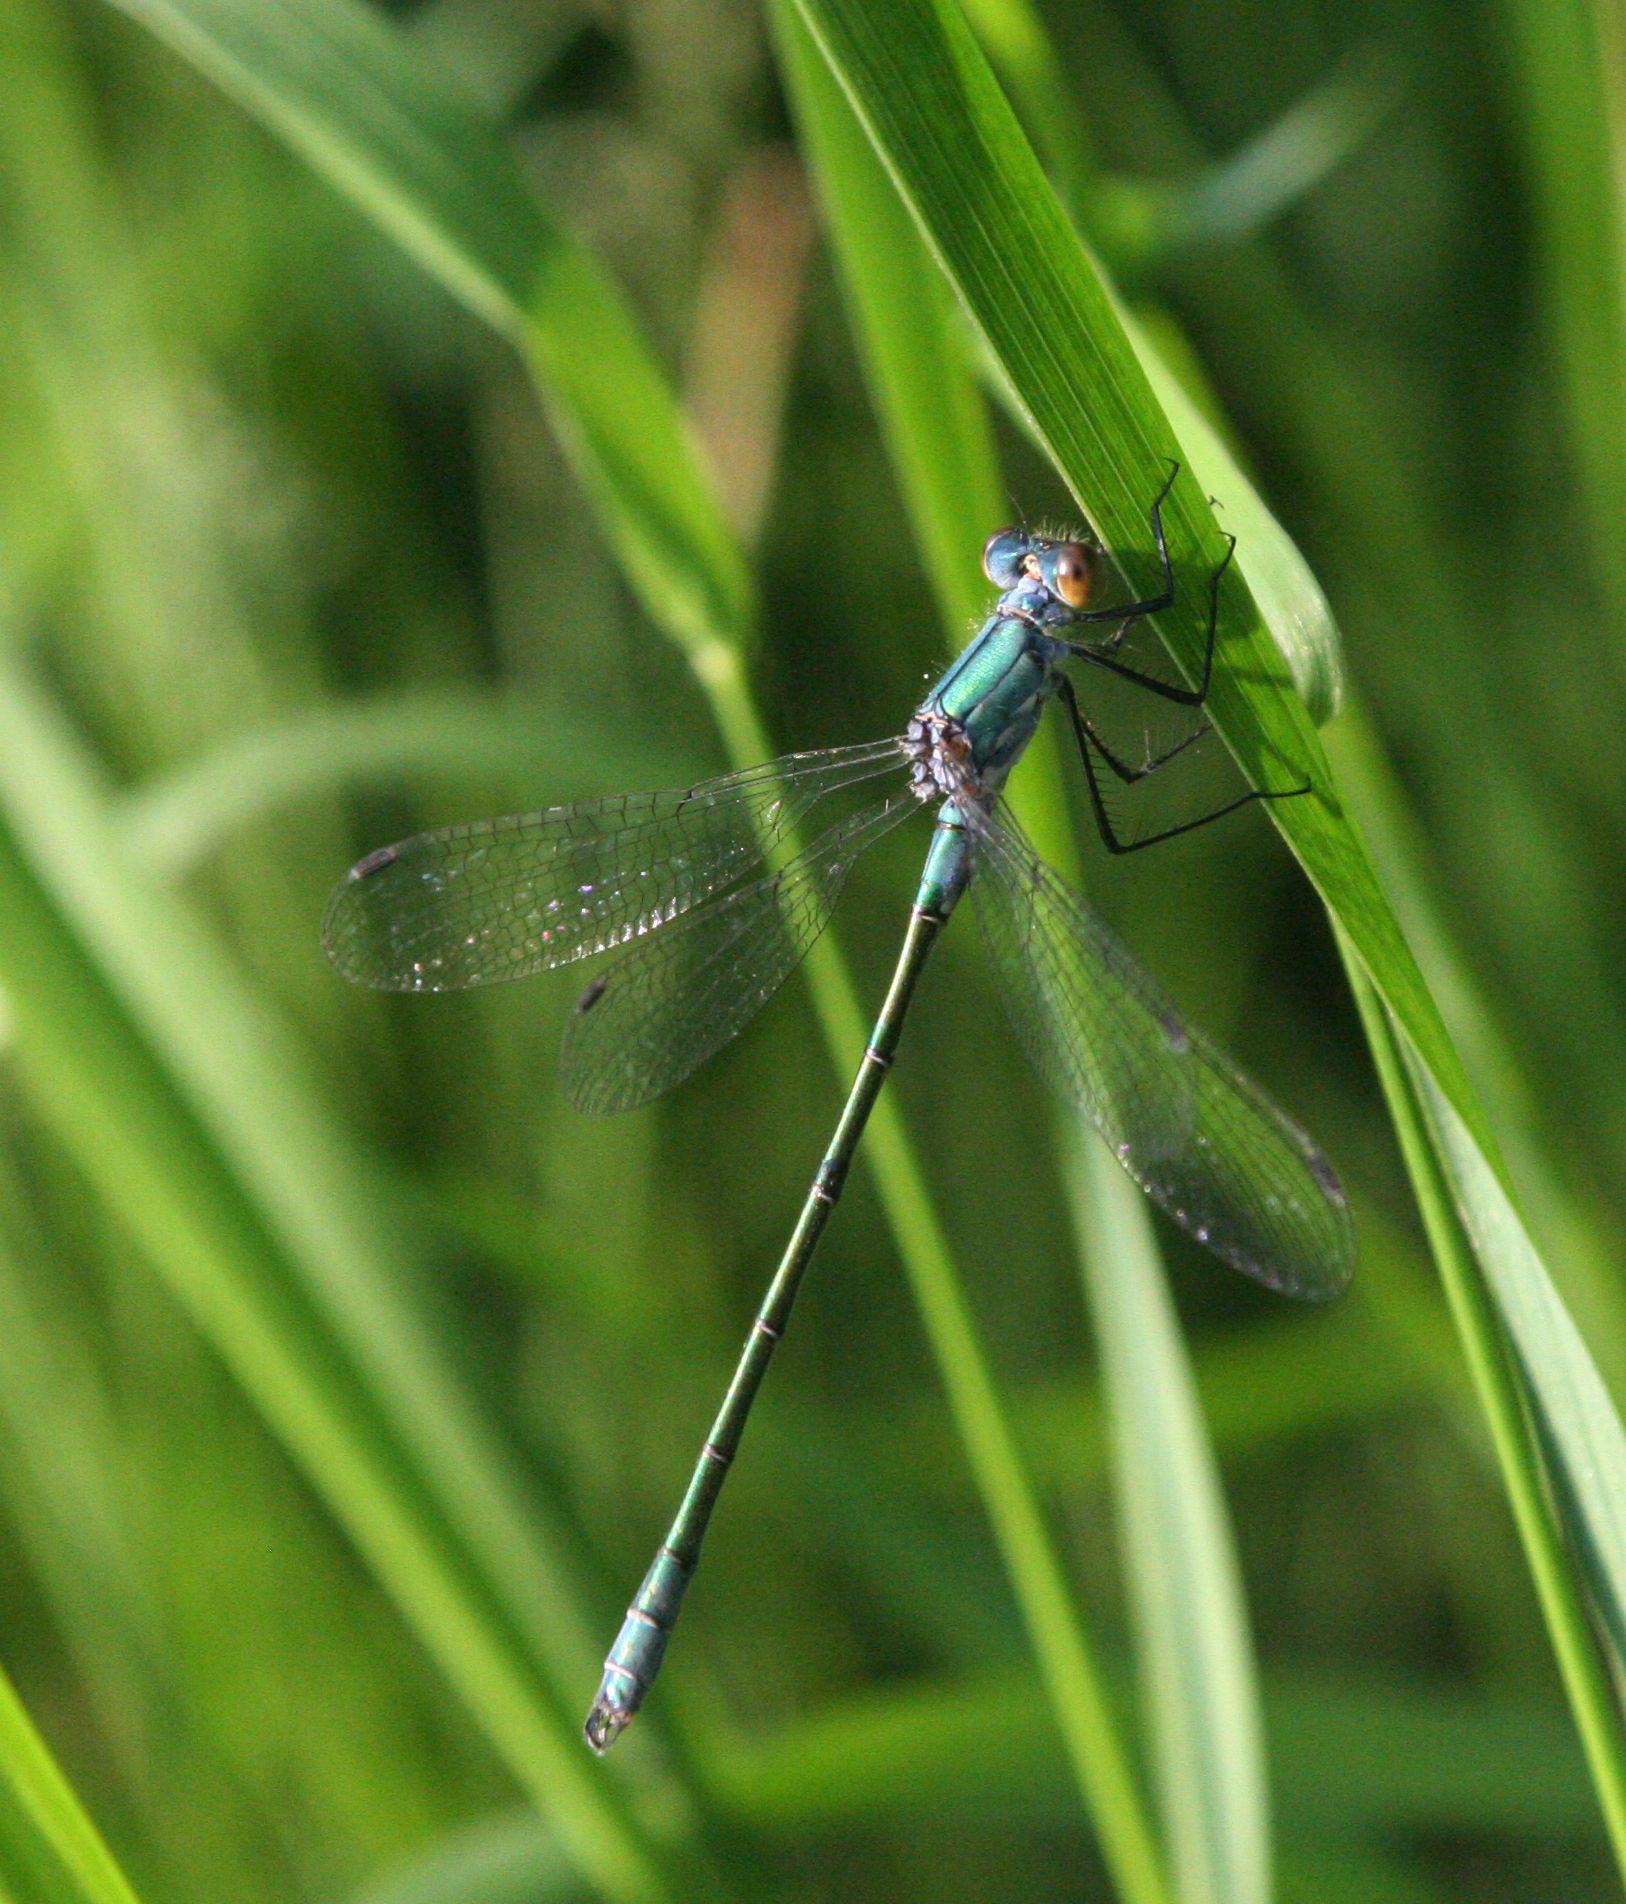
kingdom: Animalia
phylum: Arthropoda
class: Insecta
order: Odonata
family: Lestidae
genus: Lestes
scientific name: Lestes dryas
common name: Scarce emerald damselfly
